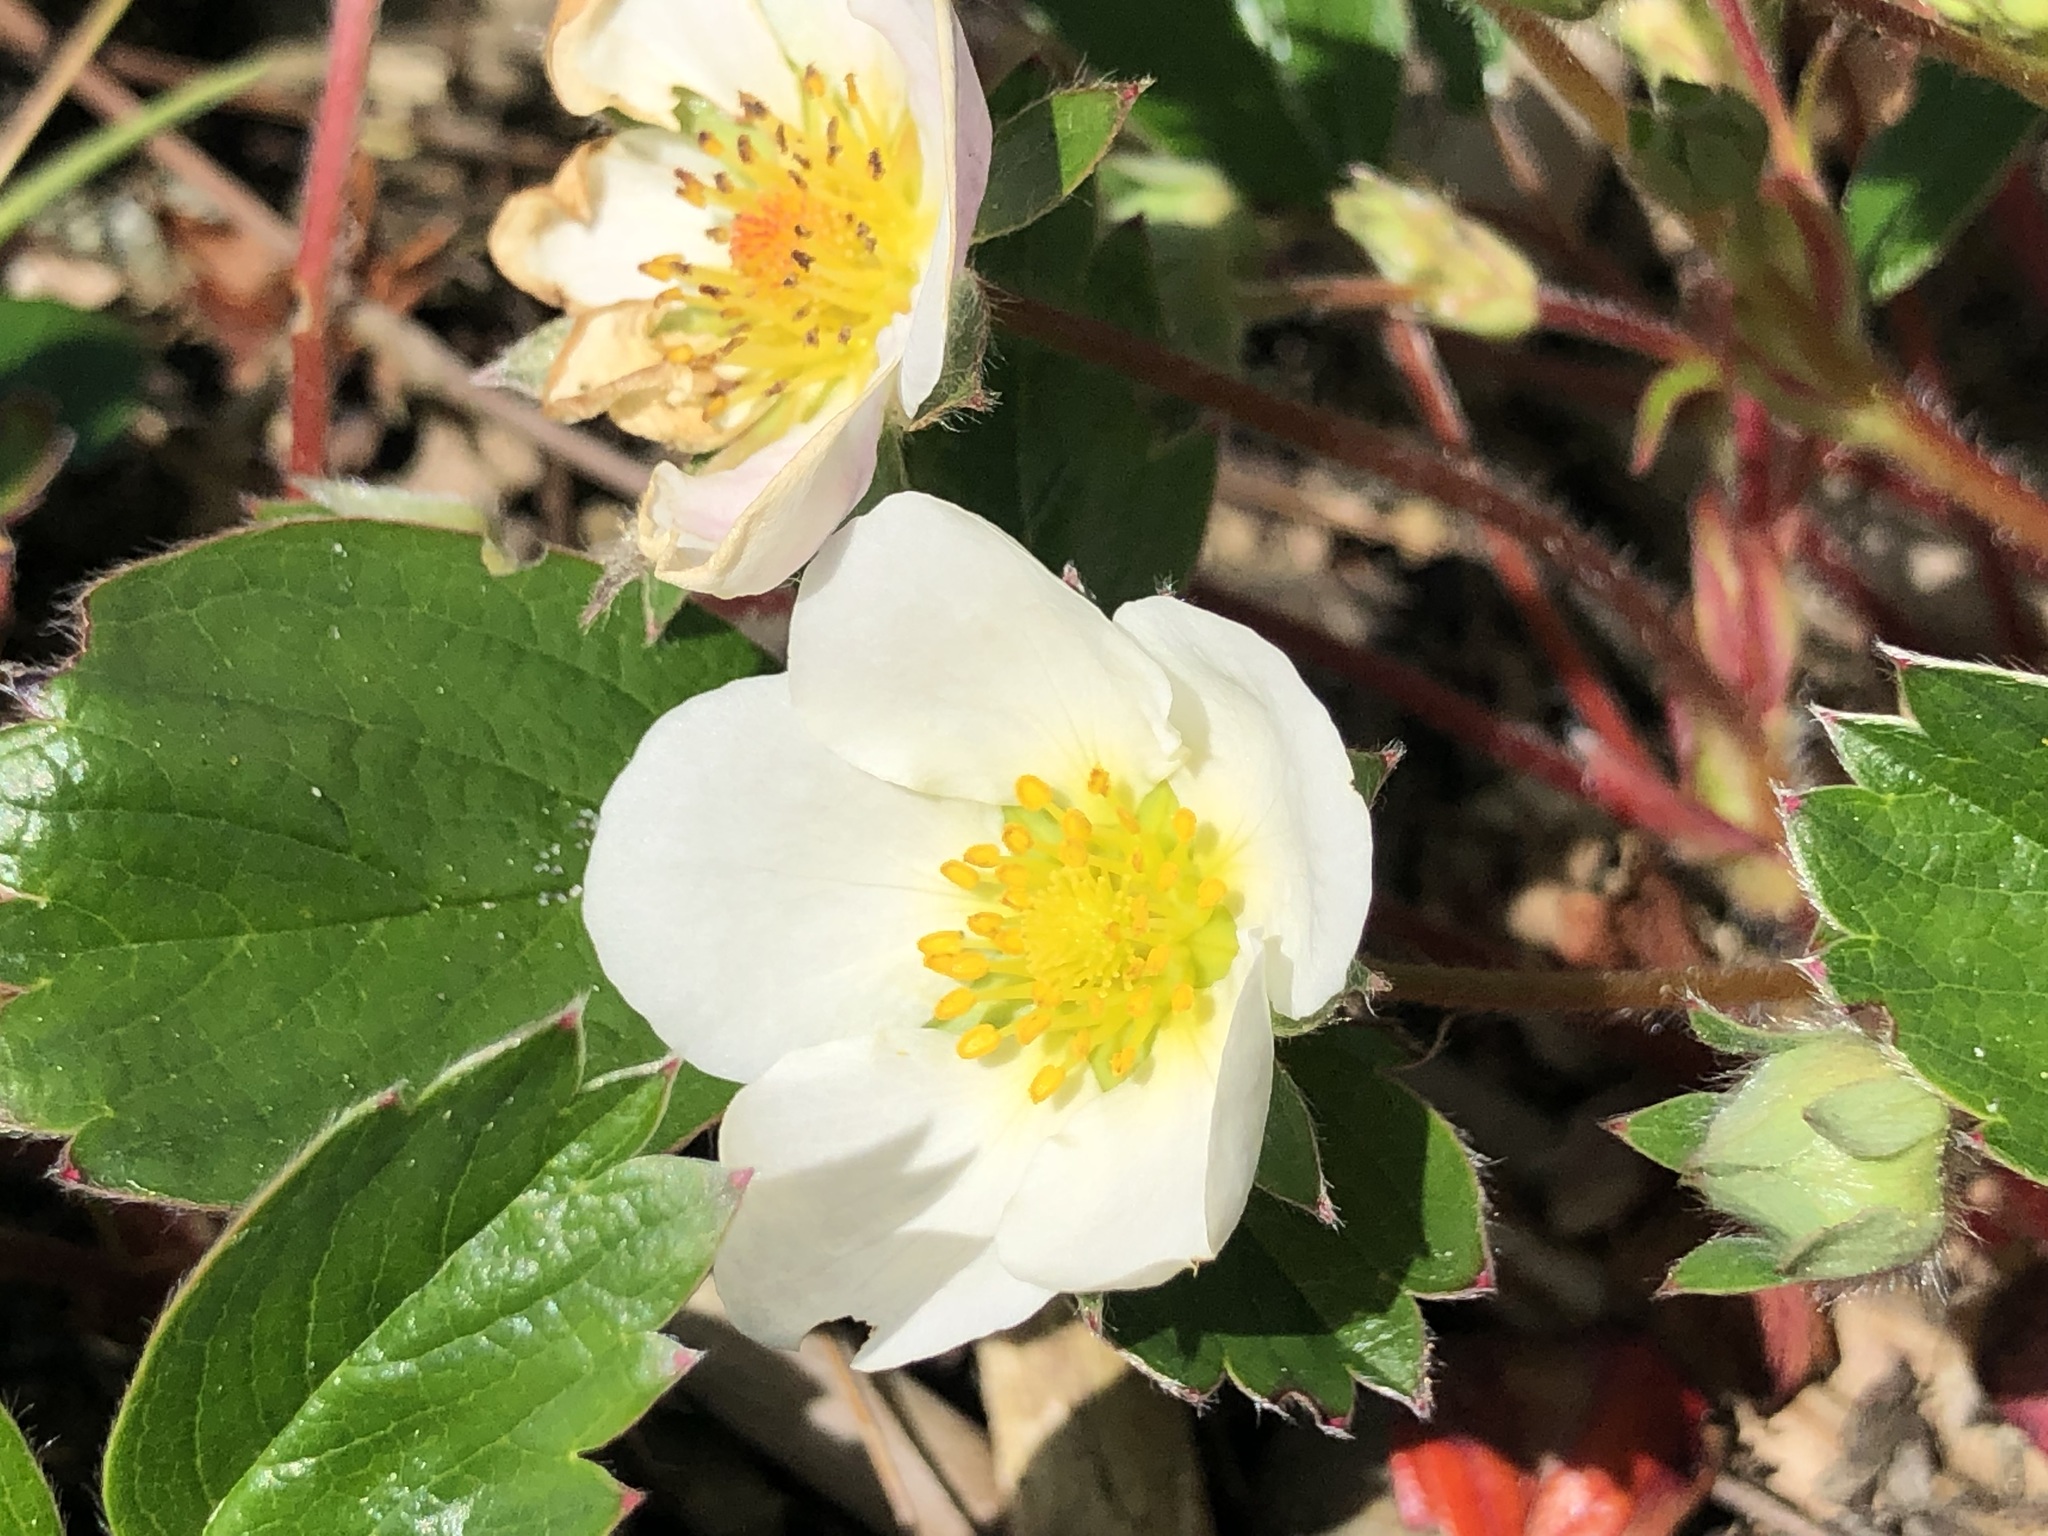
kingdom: Plantae
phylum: Tracheophyta
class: Magnoliopsida
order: Rosales
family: Rosaceae
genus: Fragaria
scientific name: Fragaria chiloensis
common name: Beach strawberry
